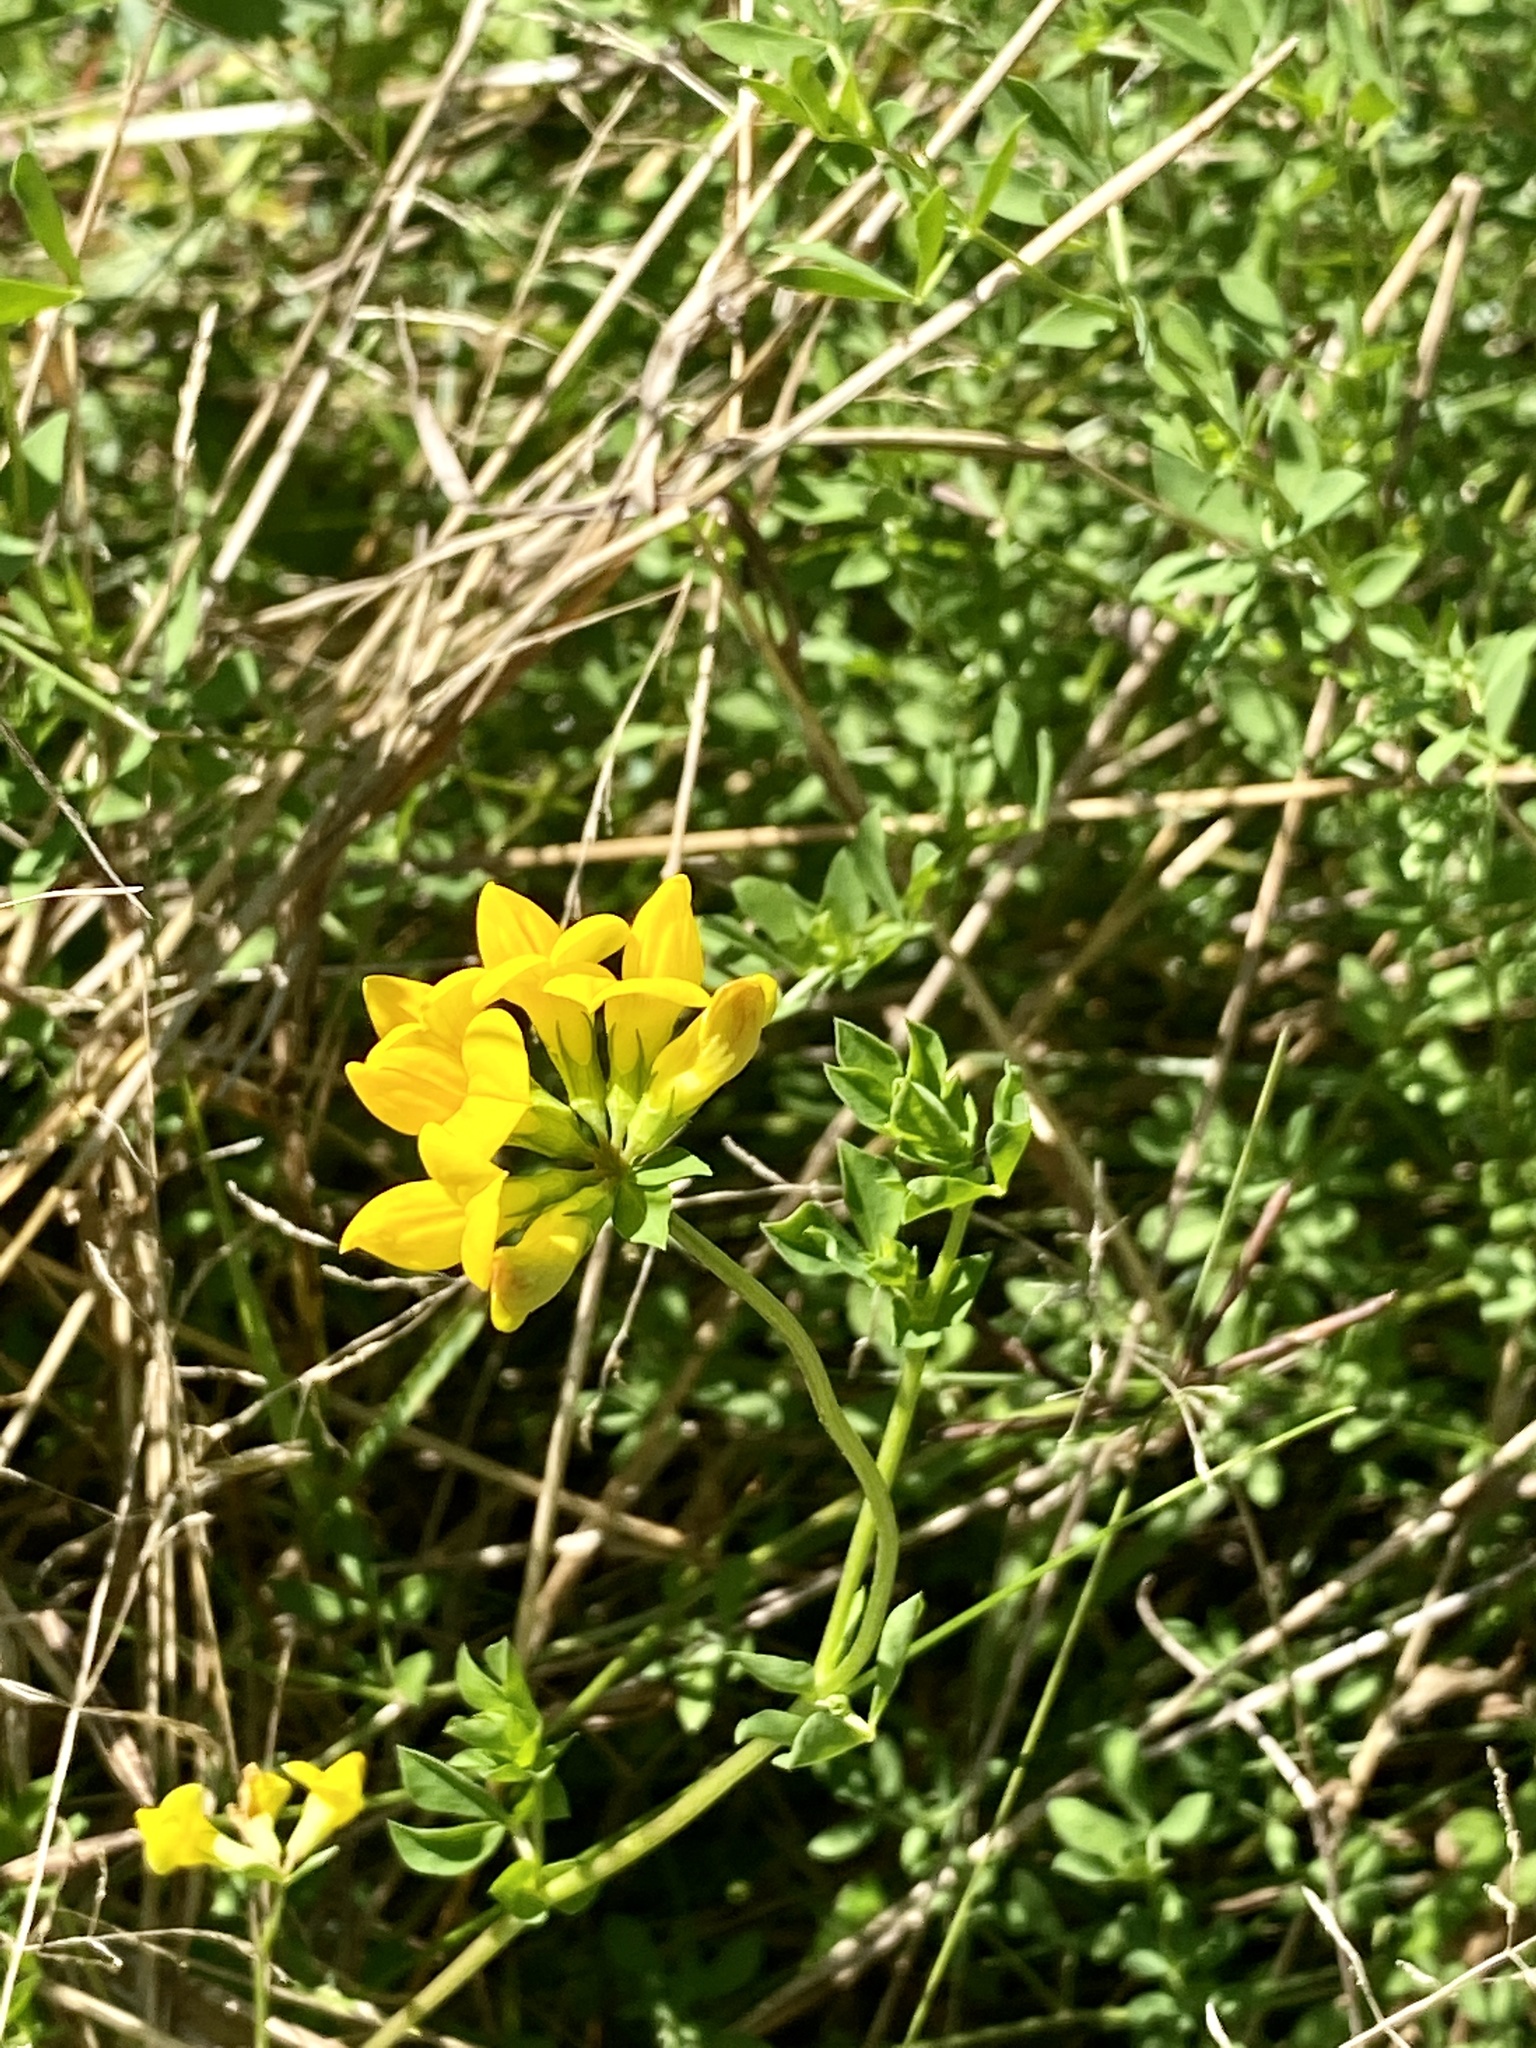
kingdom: Plantae
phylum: Tracheophyta
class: Magnoliopsida
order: Fabales
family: Fabaceae
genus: Lotus
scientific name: Lotus corniculatus
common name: Common bird's-foot-trefoil
